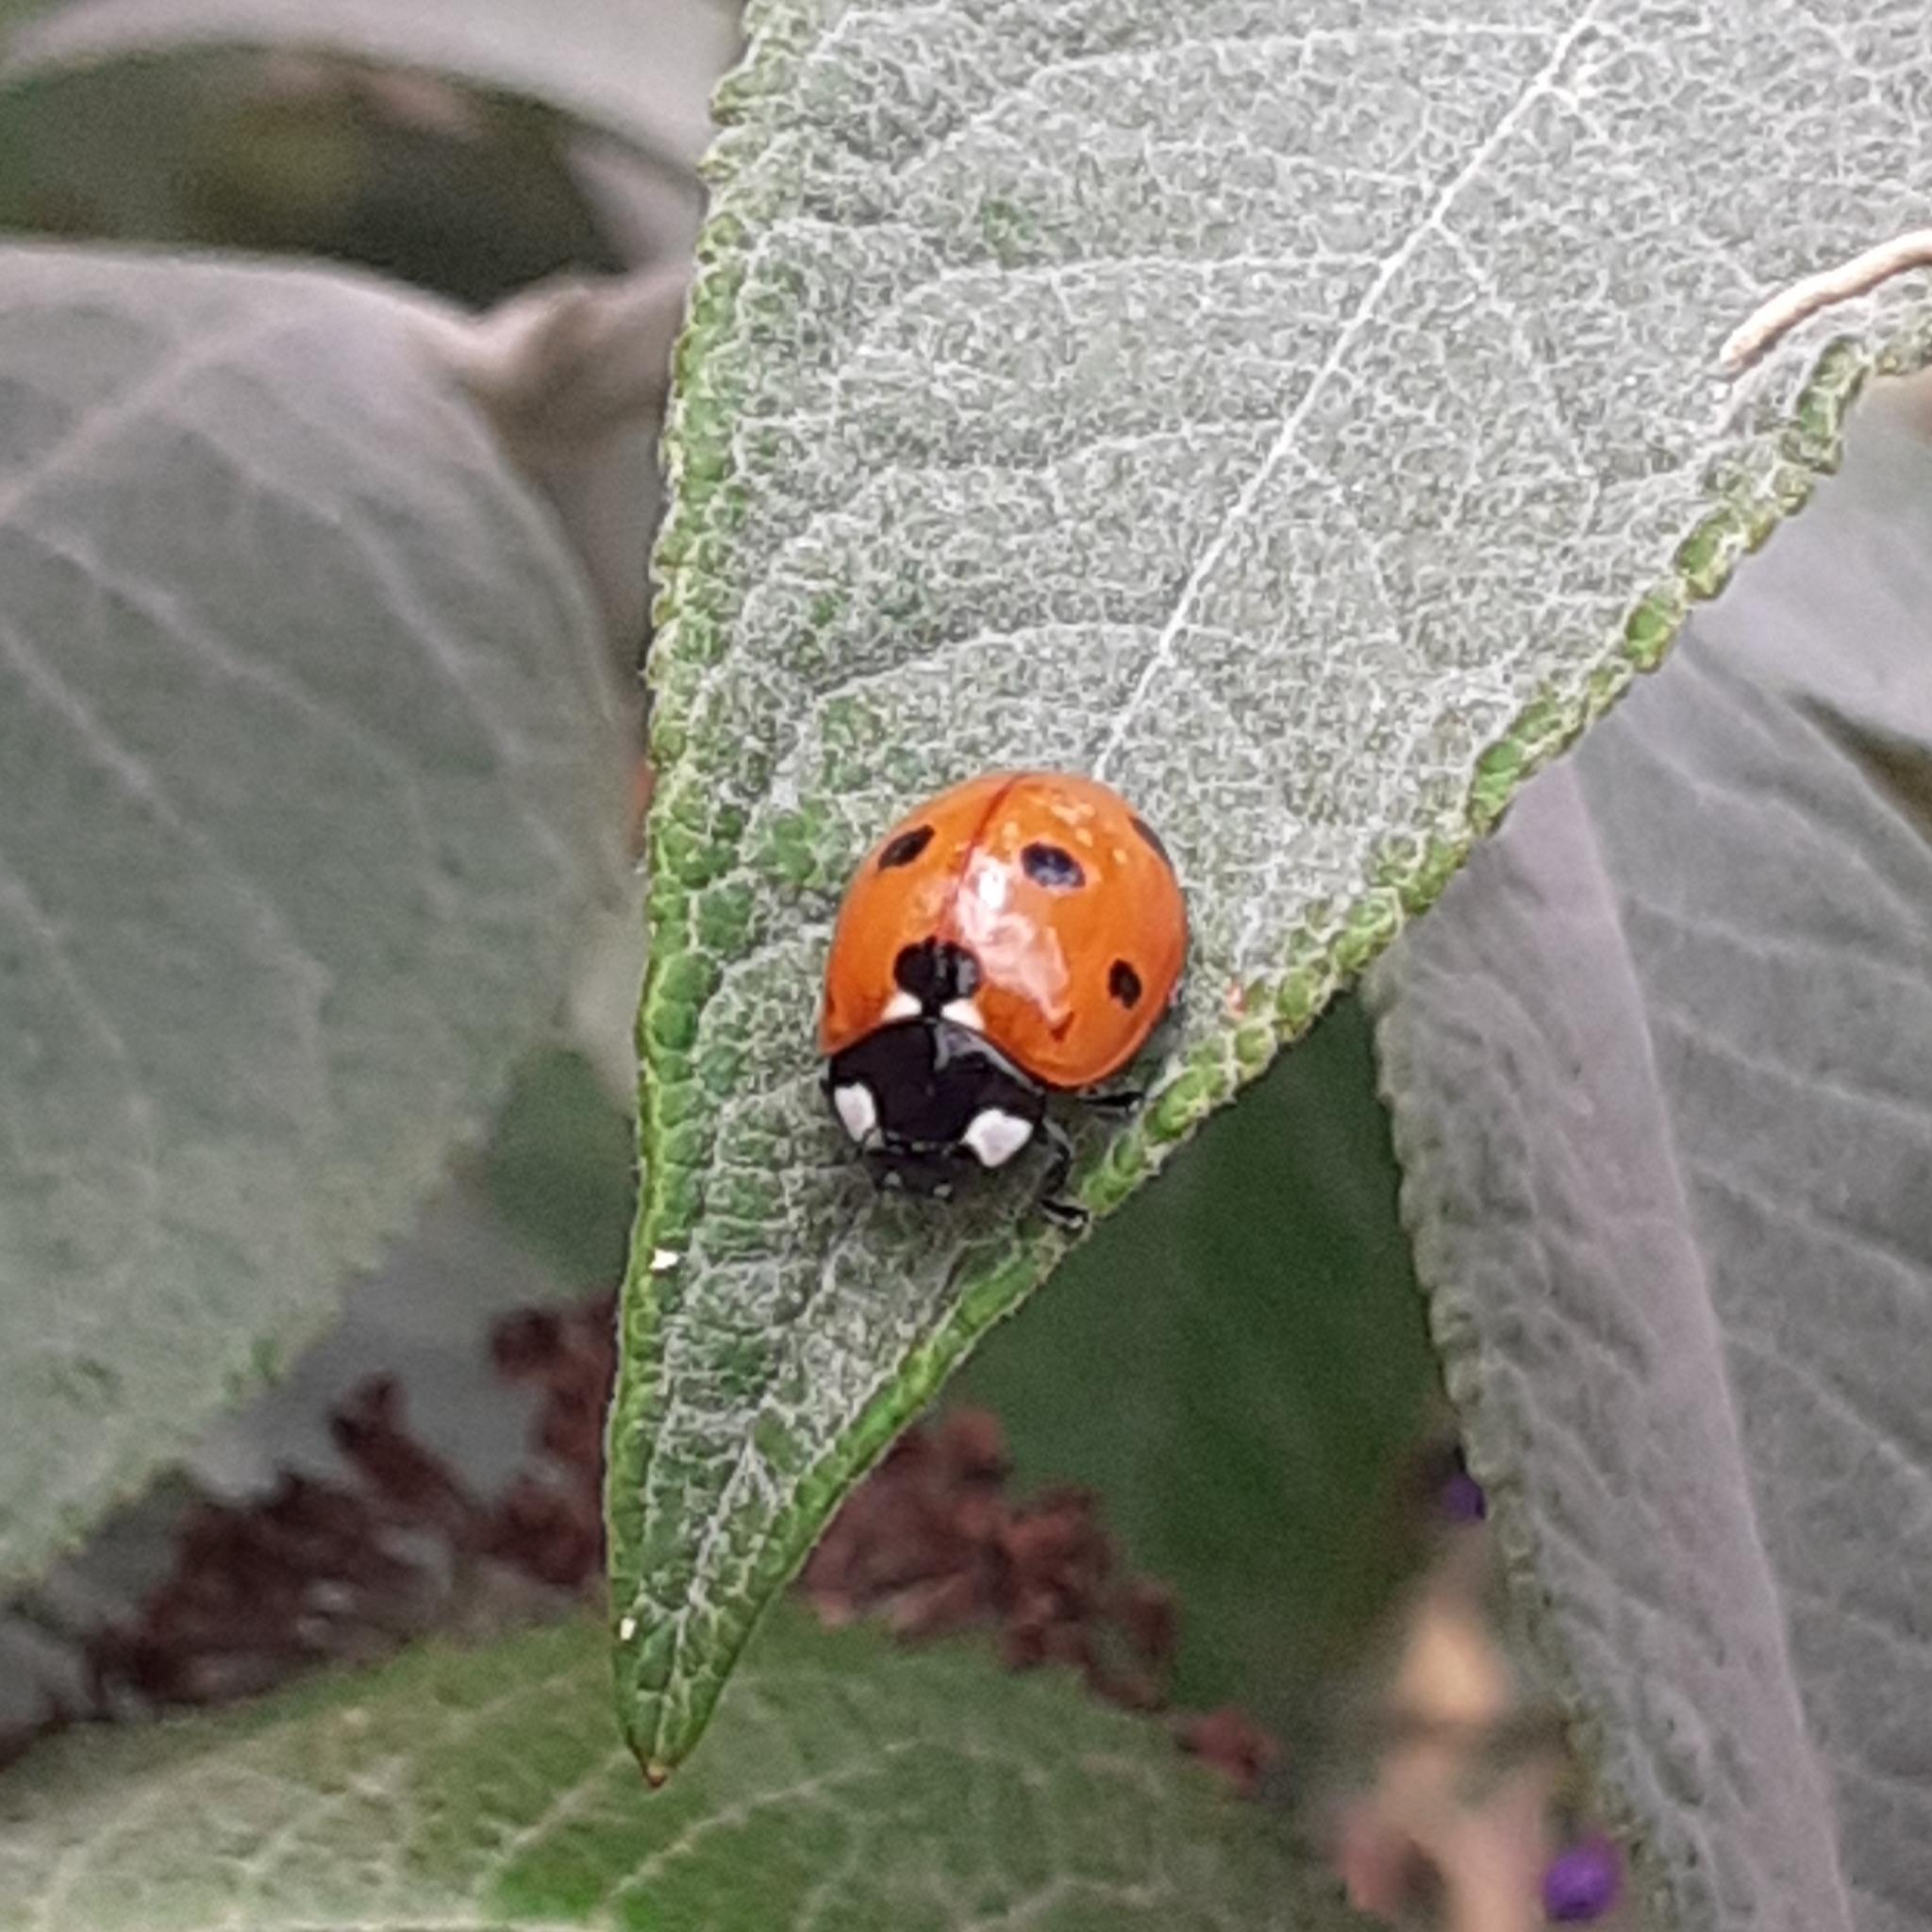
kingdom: Animalia
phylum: Arthropoda
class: Insecta
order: Coleoptera
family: Coccinellidae
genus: Coccinella
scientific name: Coccinella septempunctata
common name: Sevenspotted lady beetle
